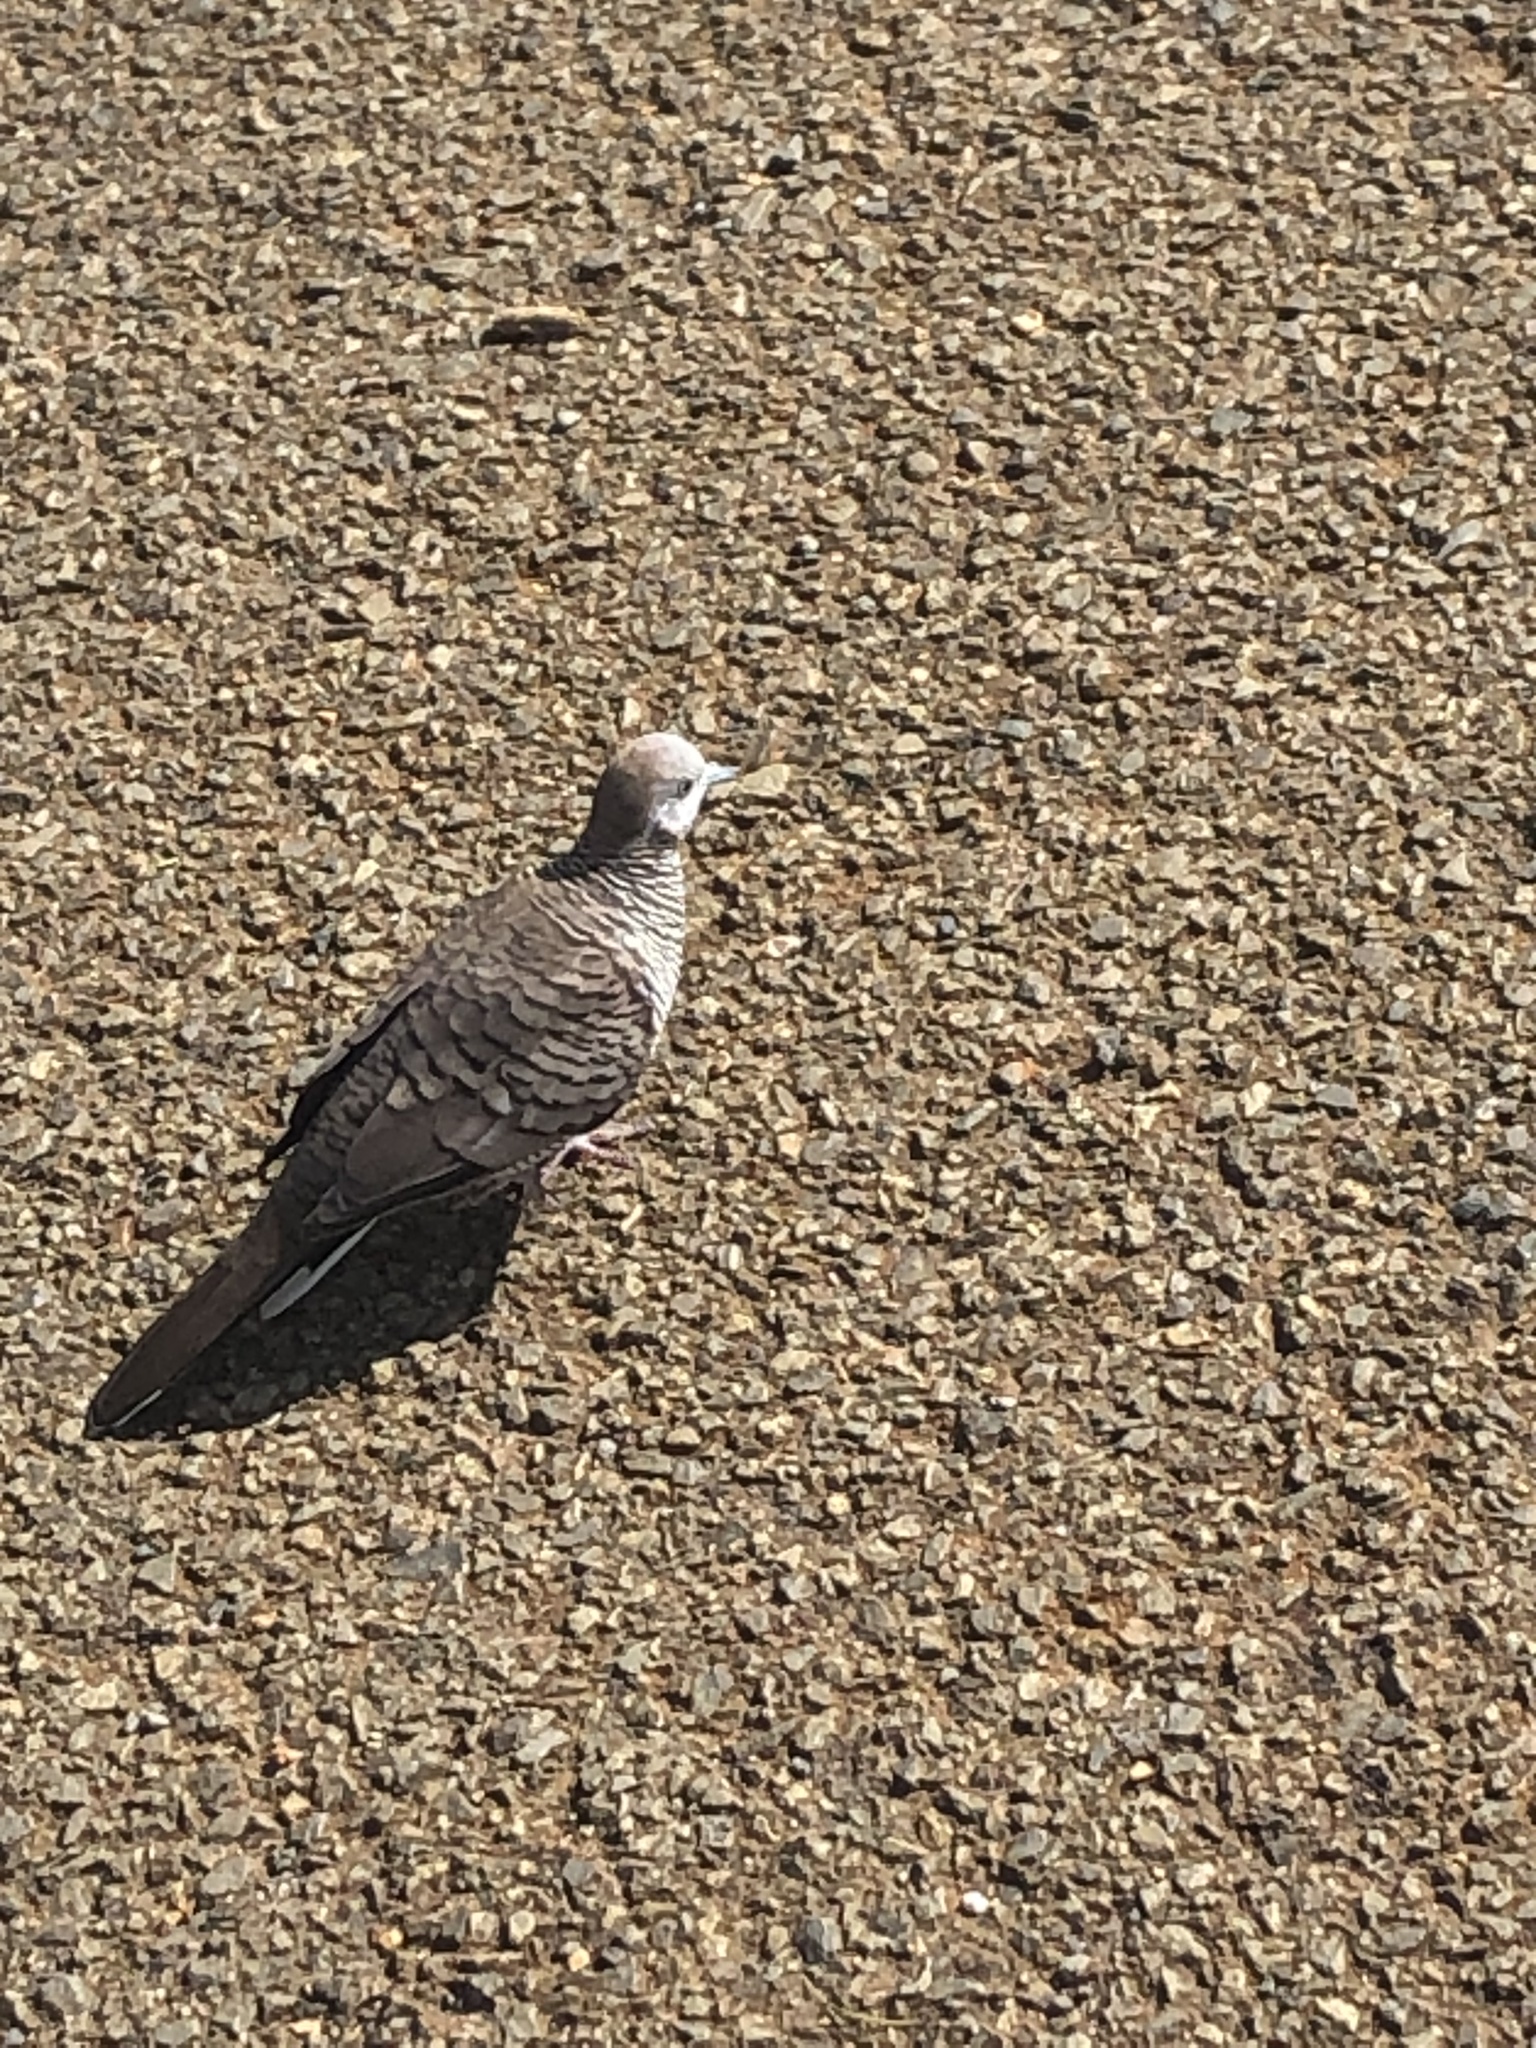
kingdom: Animalia
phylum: Chordata
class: Aves
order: Columbiformes
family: Columbidae
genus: Geopelia
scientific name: Geopelia striata
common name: Zebra dove
